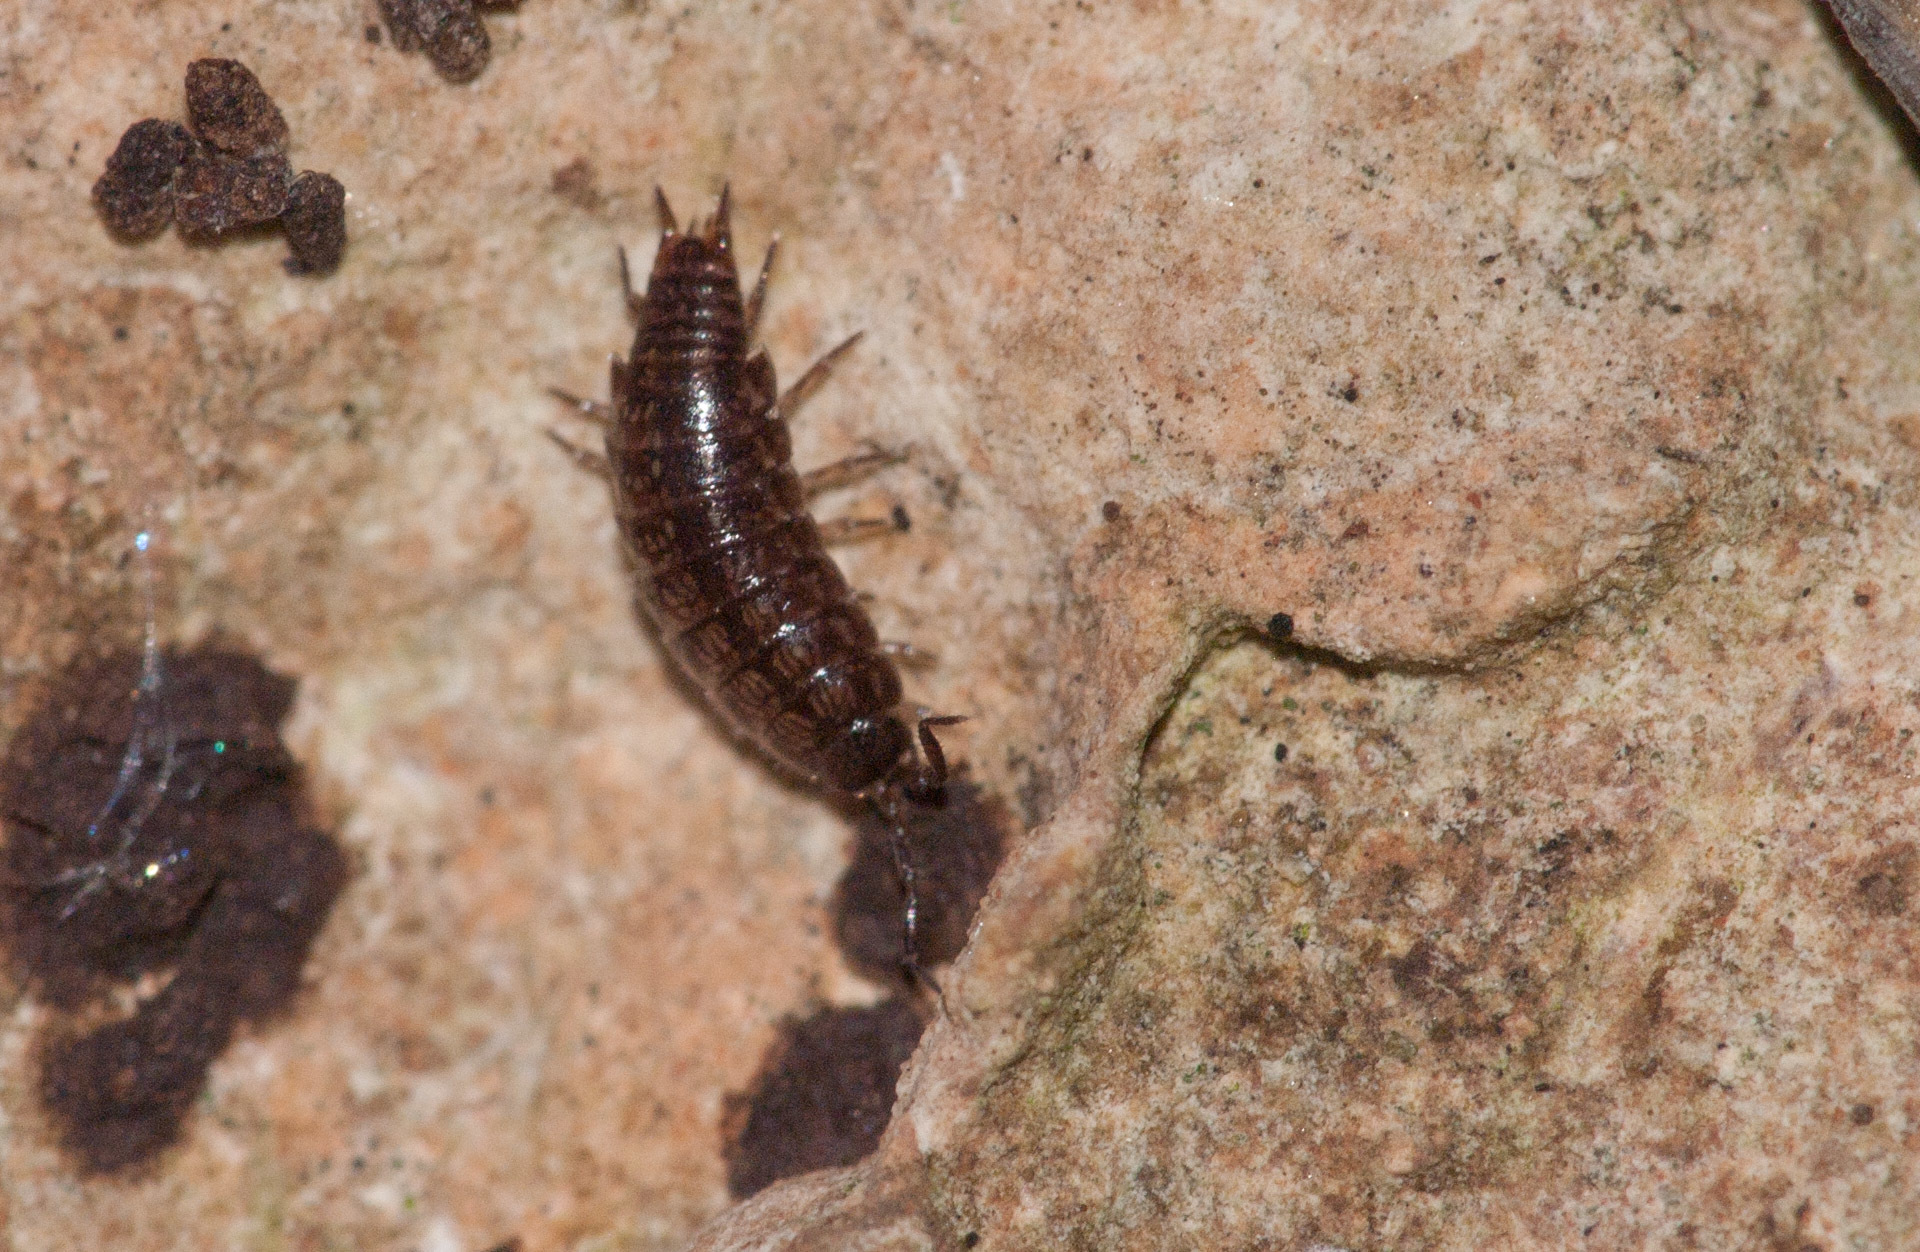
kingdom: Animalia
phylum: Arthropoda
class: Malacostraca
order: Isopoda
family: Philosciidae
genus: Laevophiloscia
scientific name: Laevophiloscia yalgoonensis
